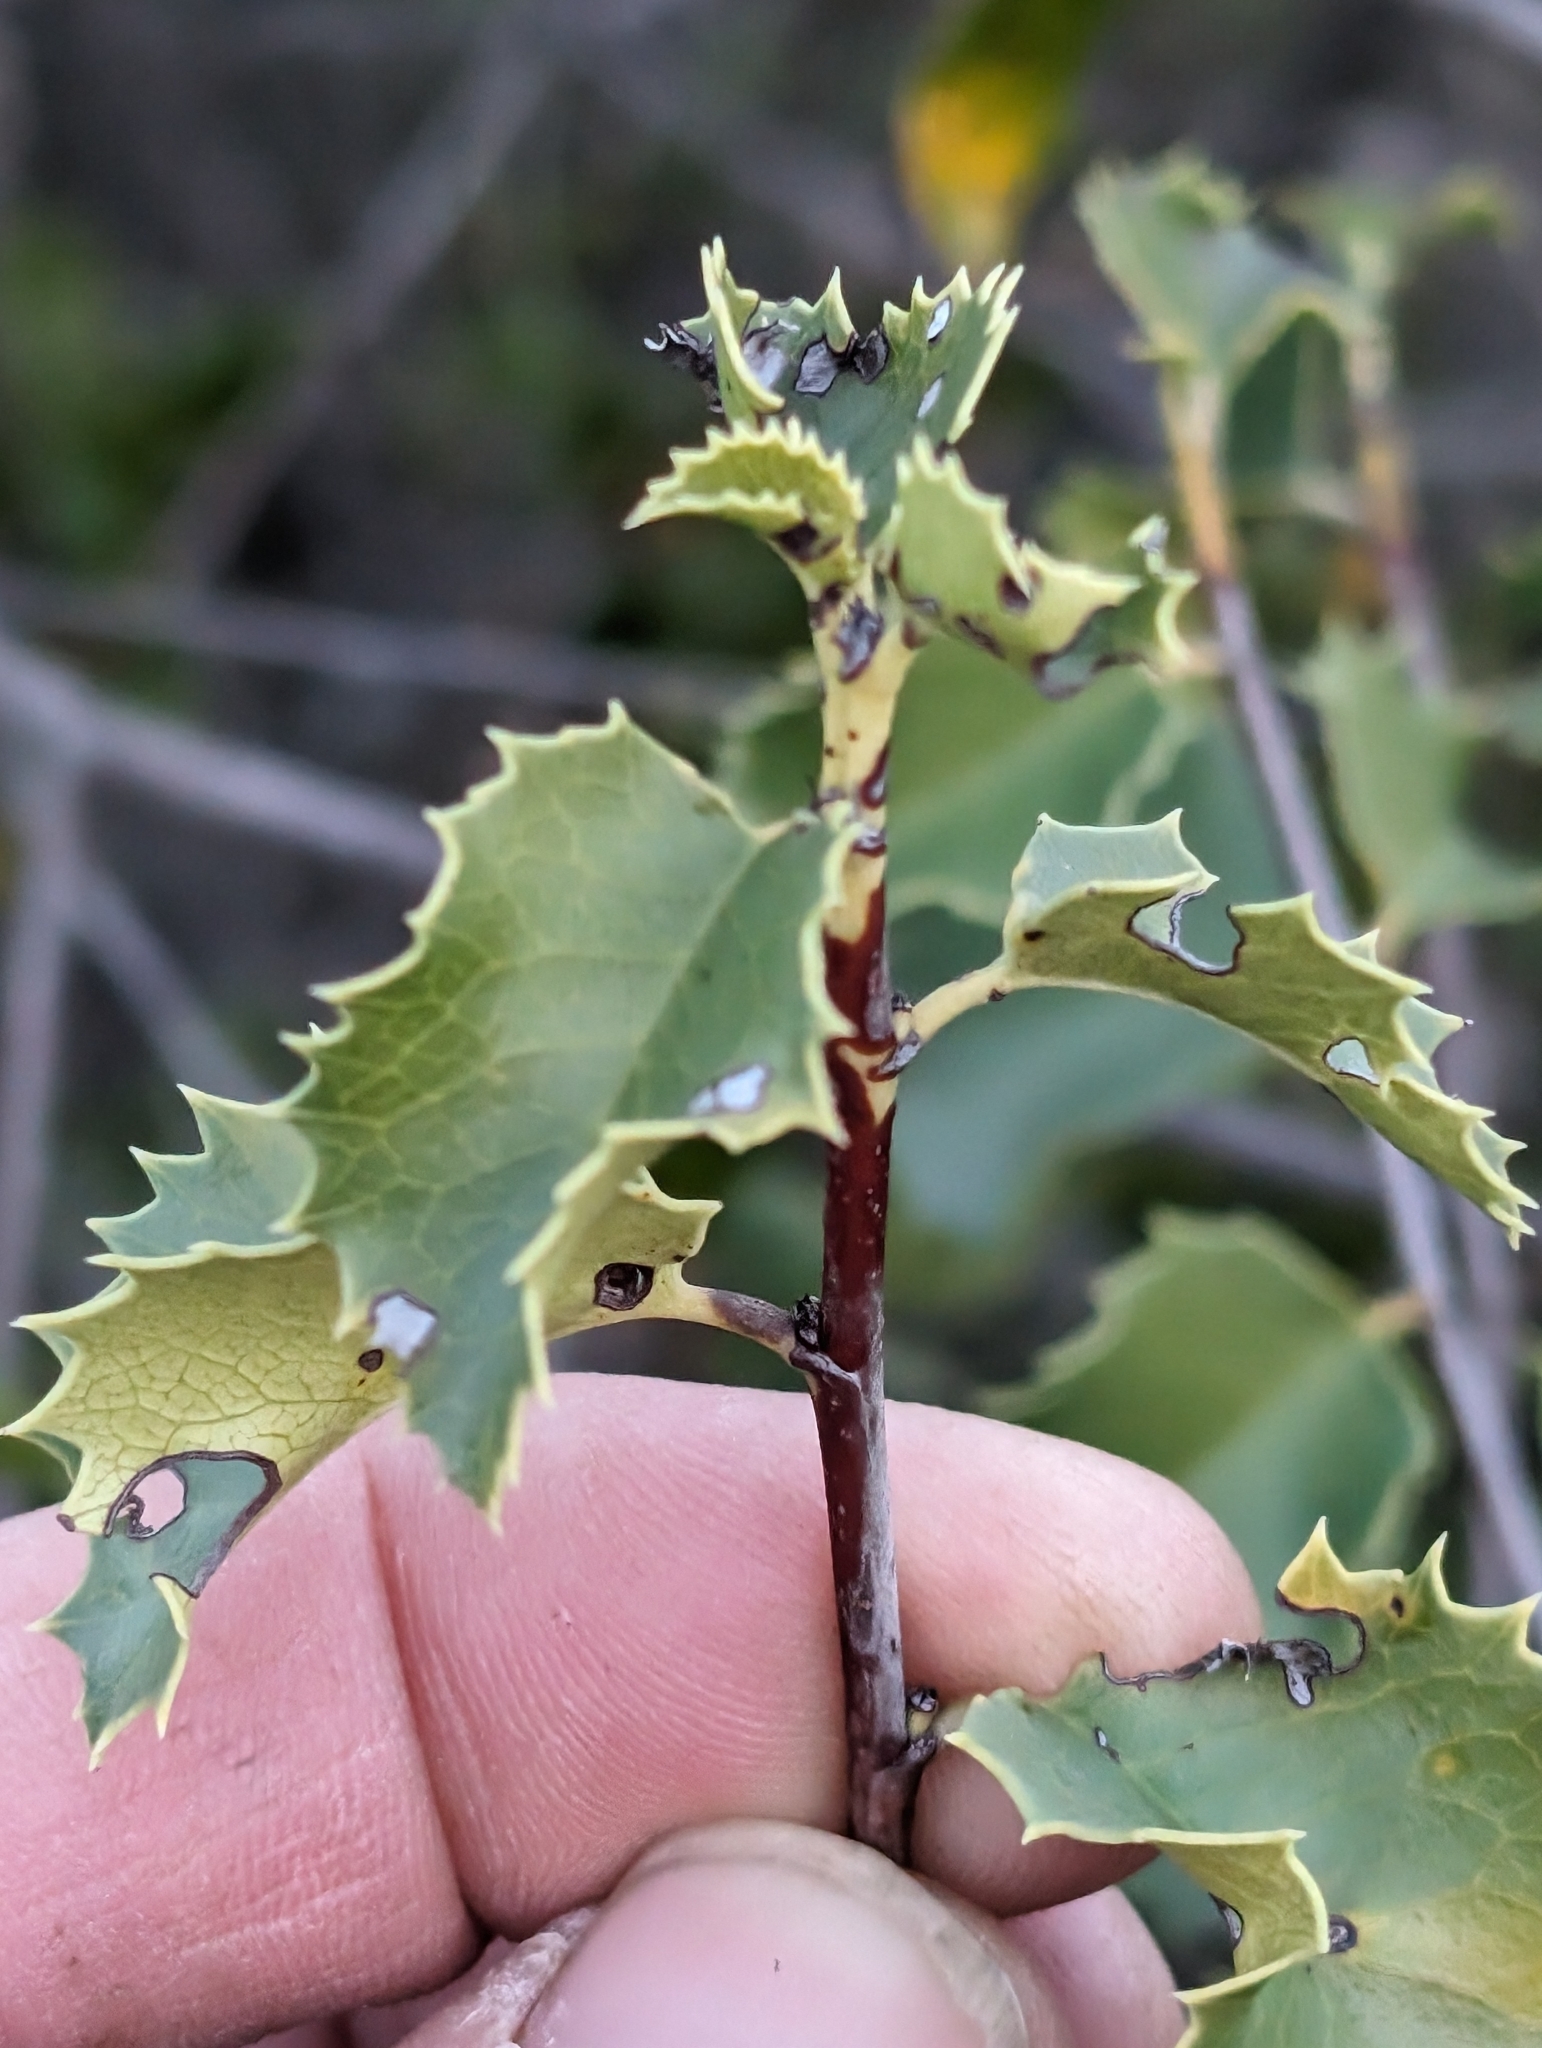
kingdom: Plantae
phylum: Tracheophyta
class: Magnoliopsida
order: Rosales
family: Rosaceae
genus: Prunus
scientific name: Prunus ilicifolia
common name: Hollyleaf cherry
